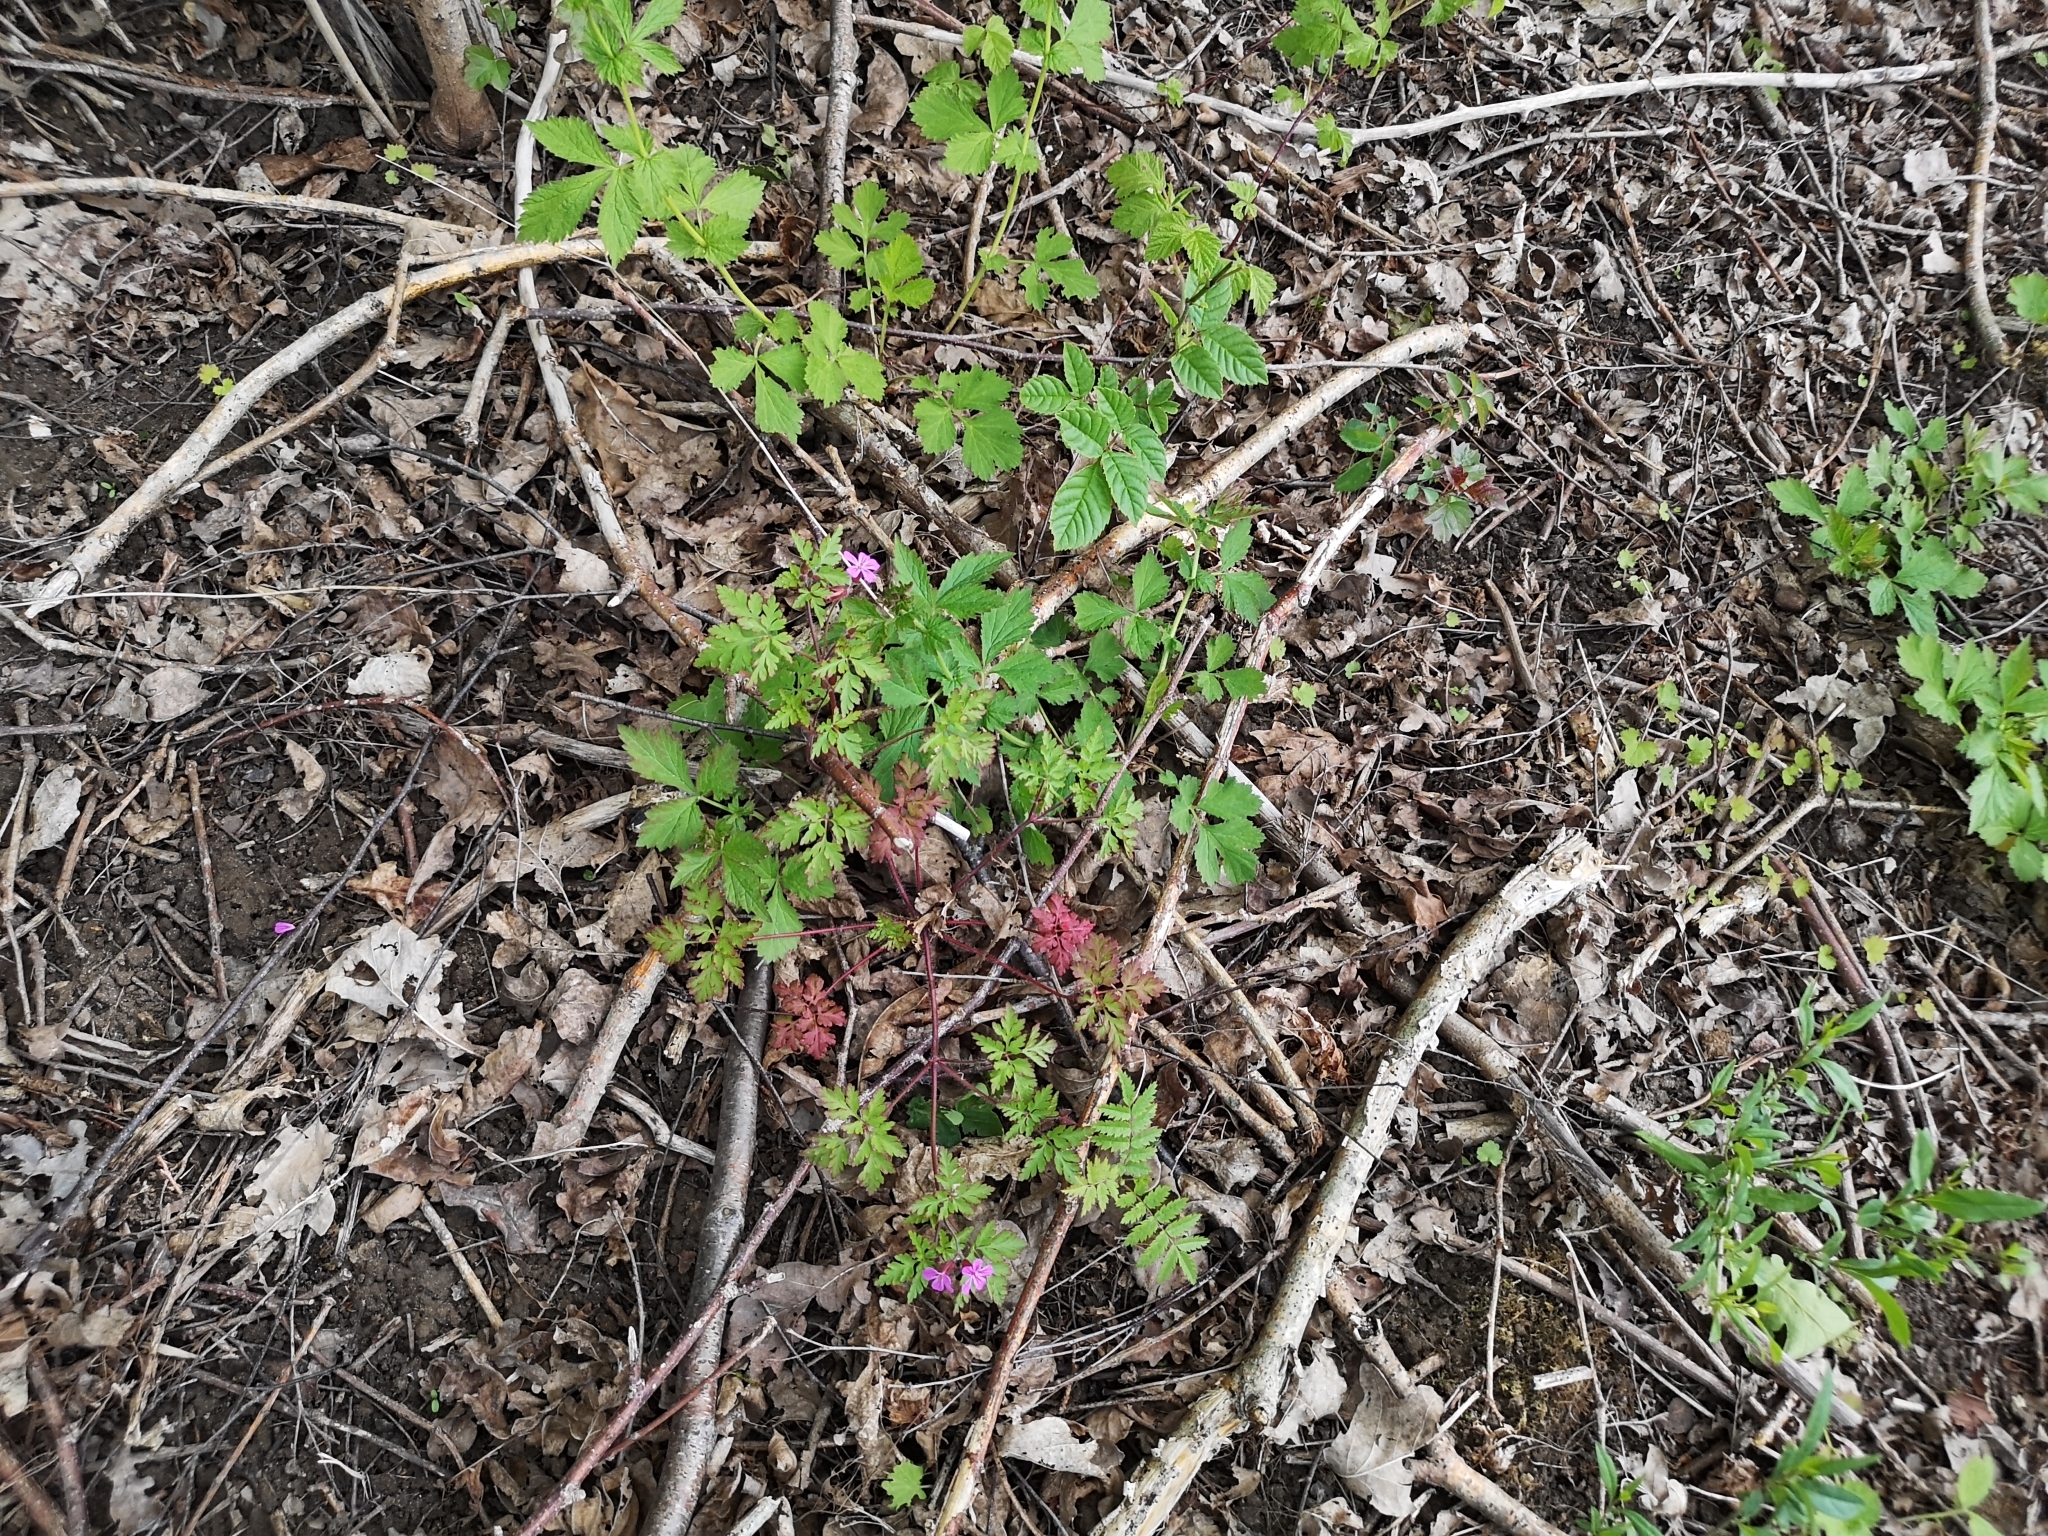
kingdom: Plantae
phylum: Tracheophyta
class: Magnoliopsida
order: Geraniales
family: Geraniaceae
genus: Geranium
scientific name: Geranium robertianum
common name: Herb-robert
